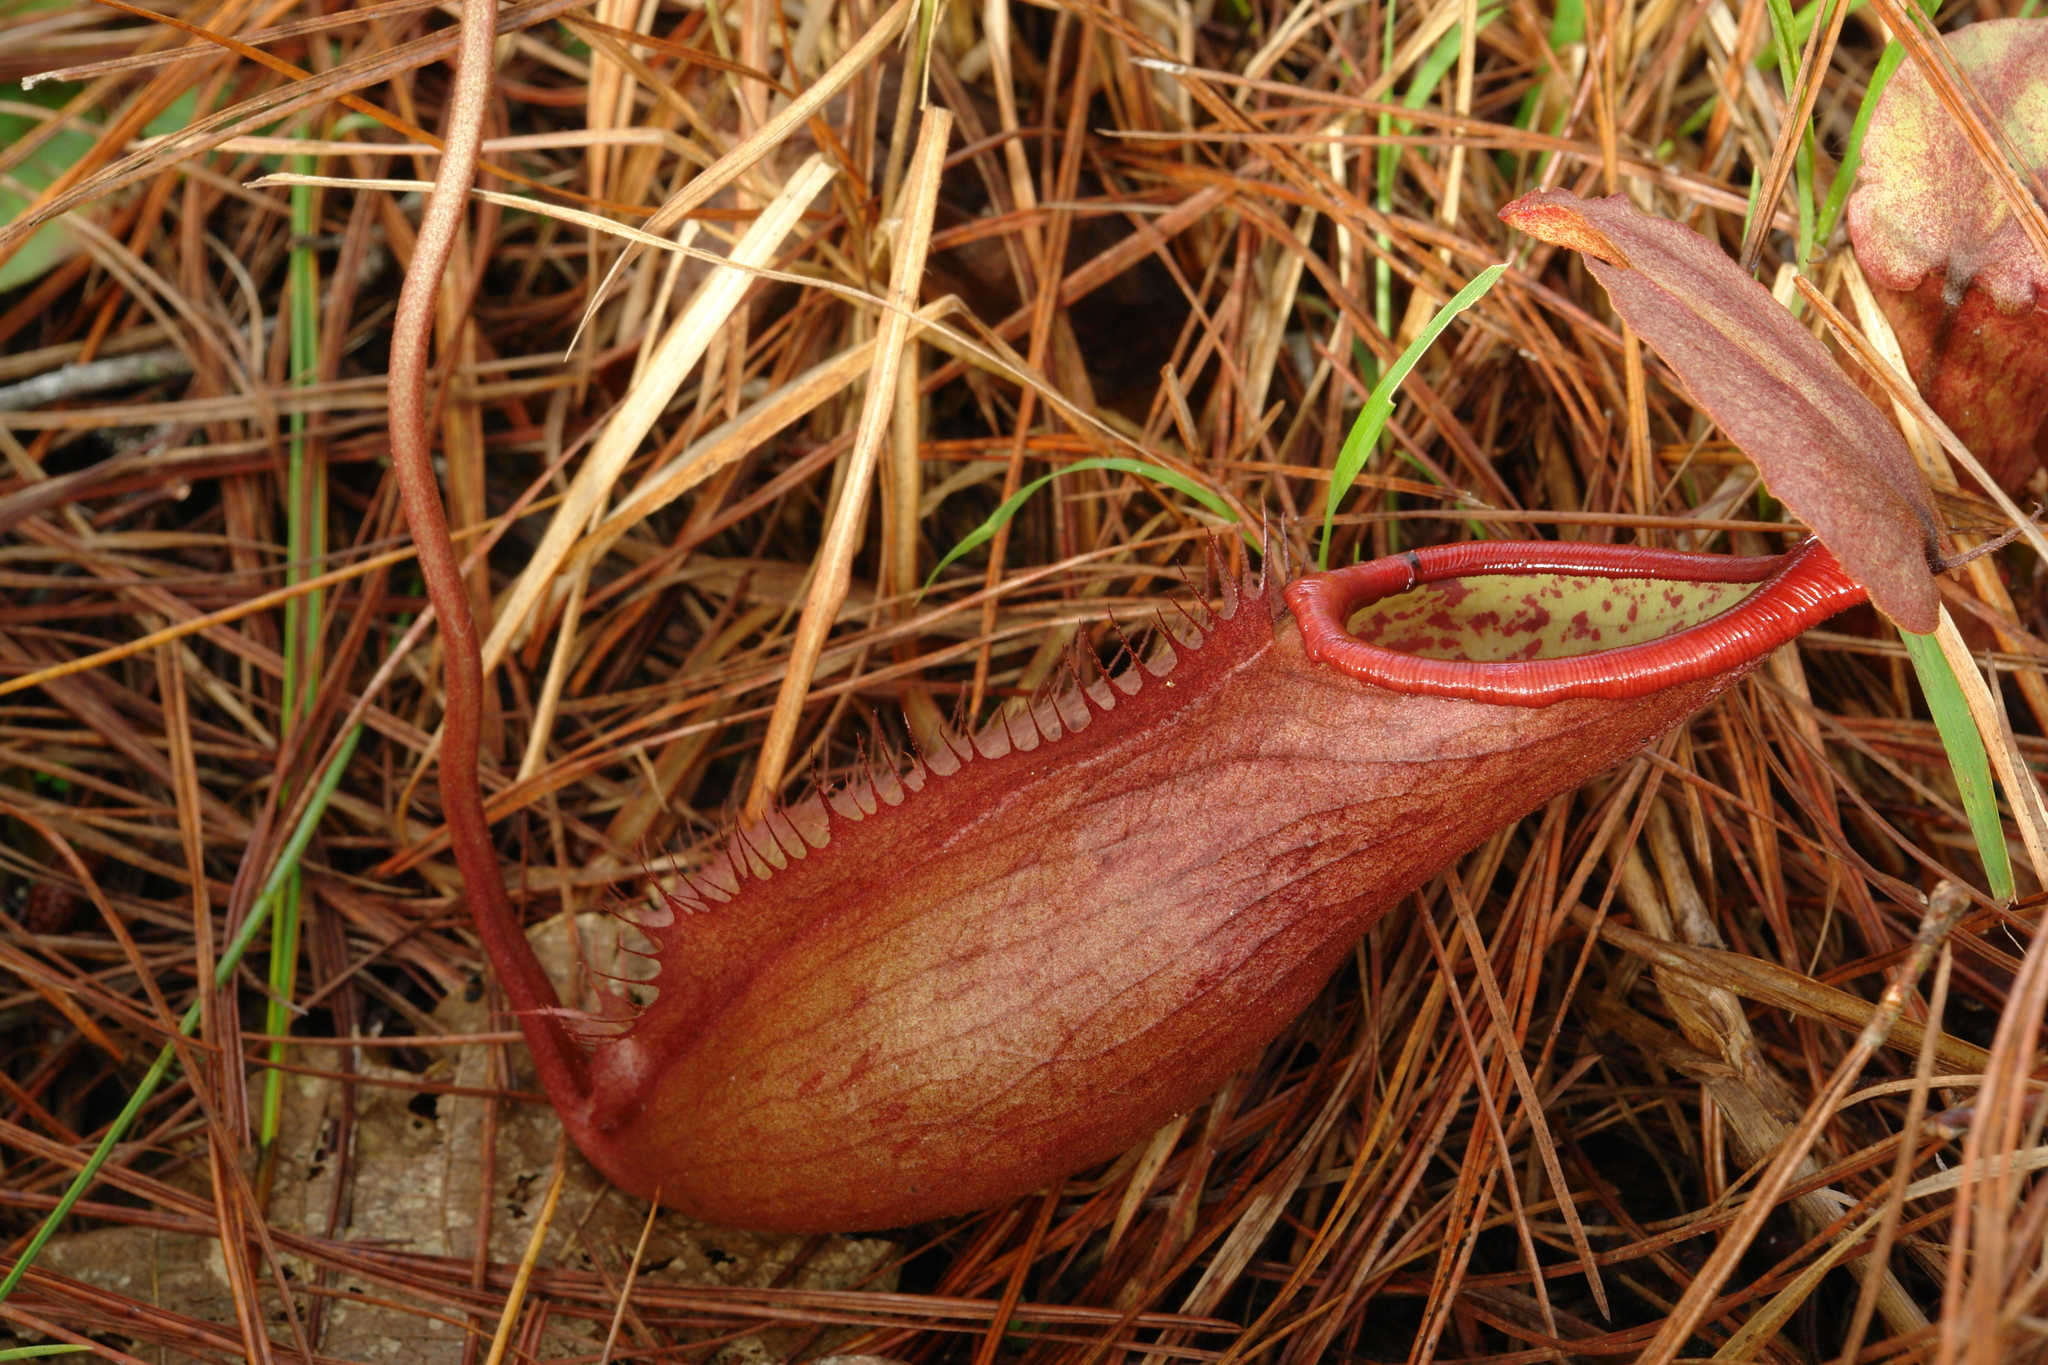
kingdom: Plantae
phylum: Tracheophyta
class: Magnoliopsida
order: Caryophyllales
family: Nepenthaceae
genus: Nepenthes
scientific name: Nepenthes smilesii
